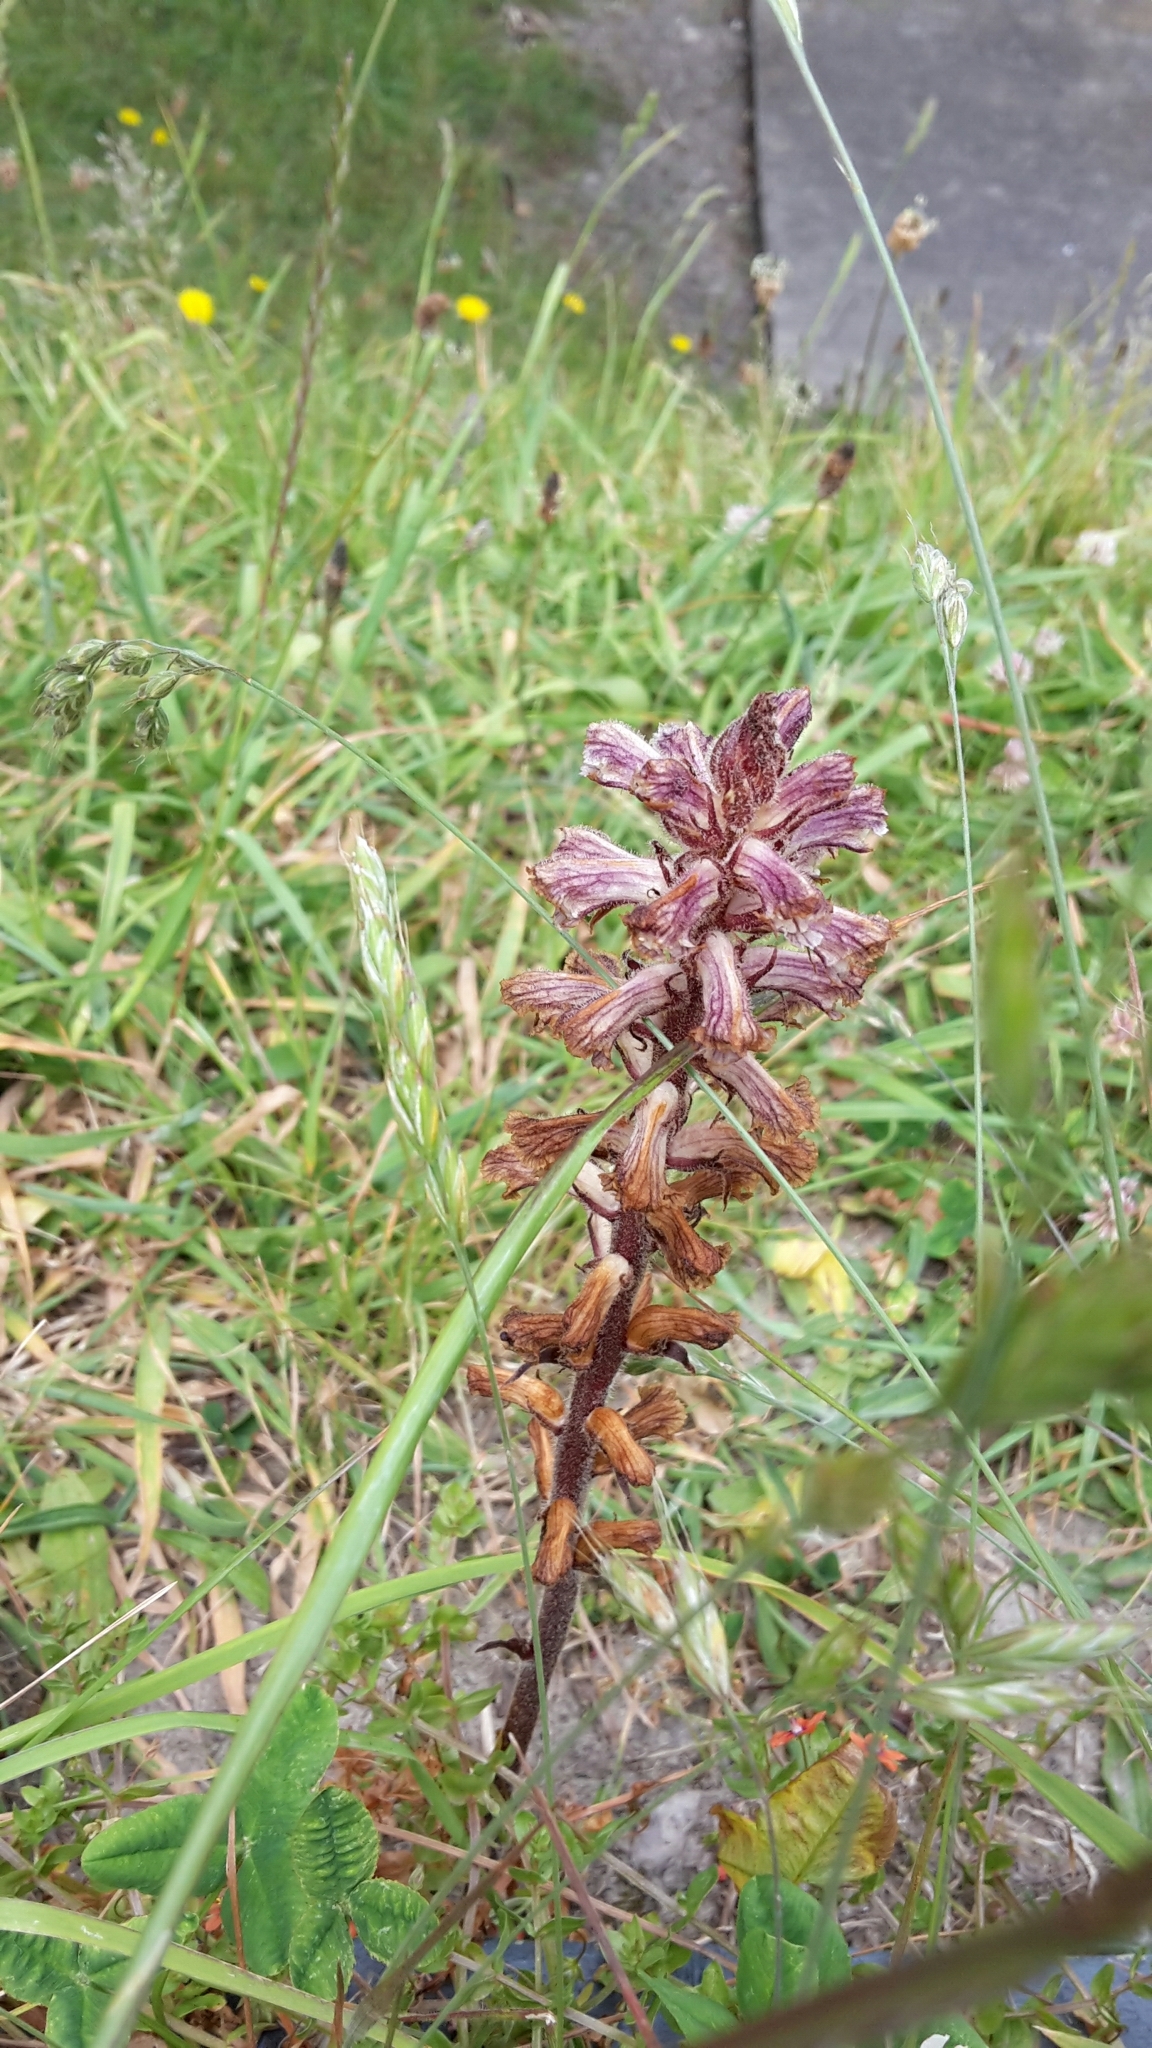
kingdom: Plantae
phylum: Tracheophyta
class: Magnoliopsida
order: Lamiales
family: Orobanchaceae
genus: Orobanche
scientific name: Orobanche minor
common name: Common broomrape
